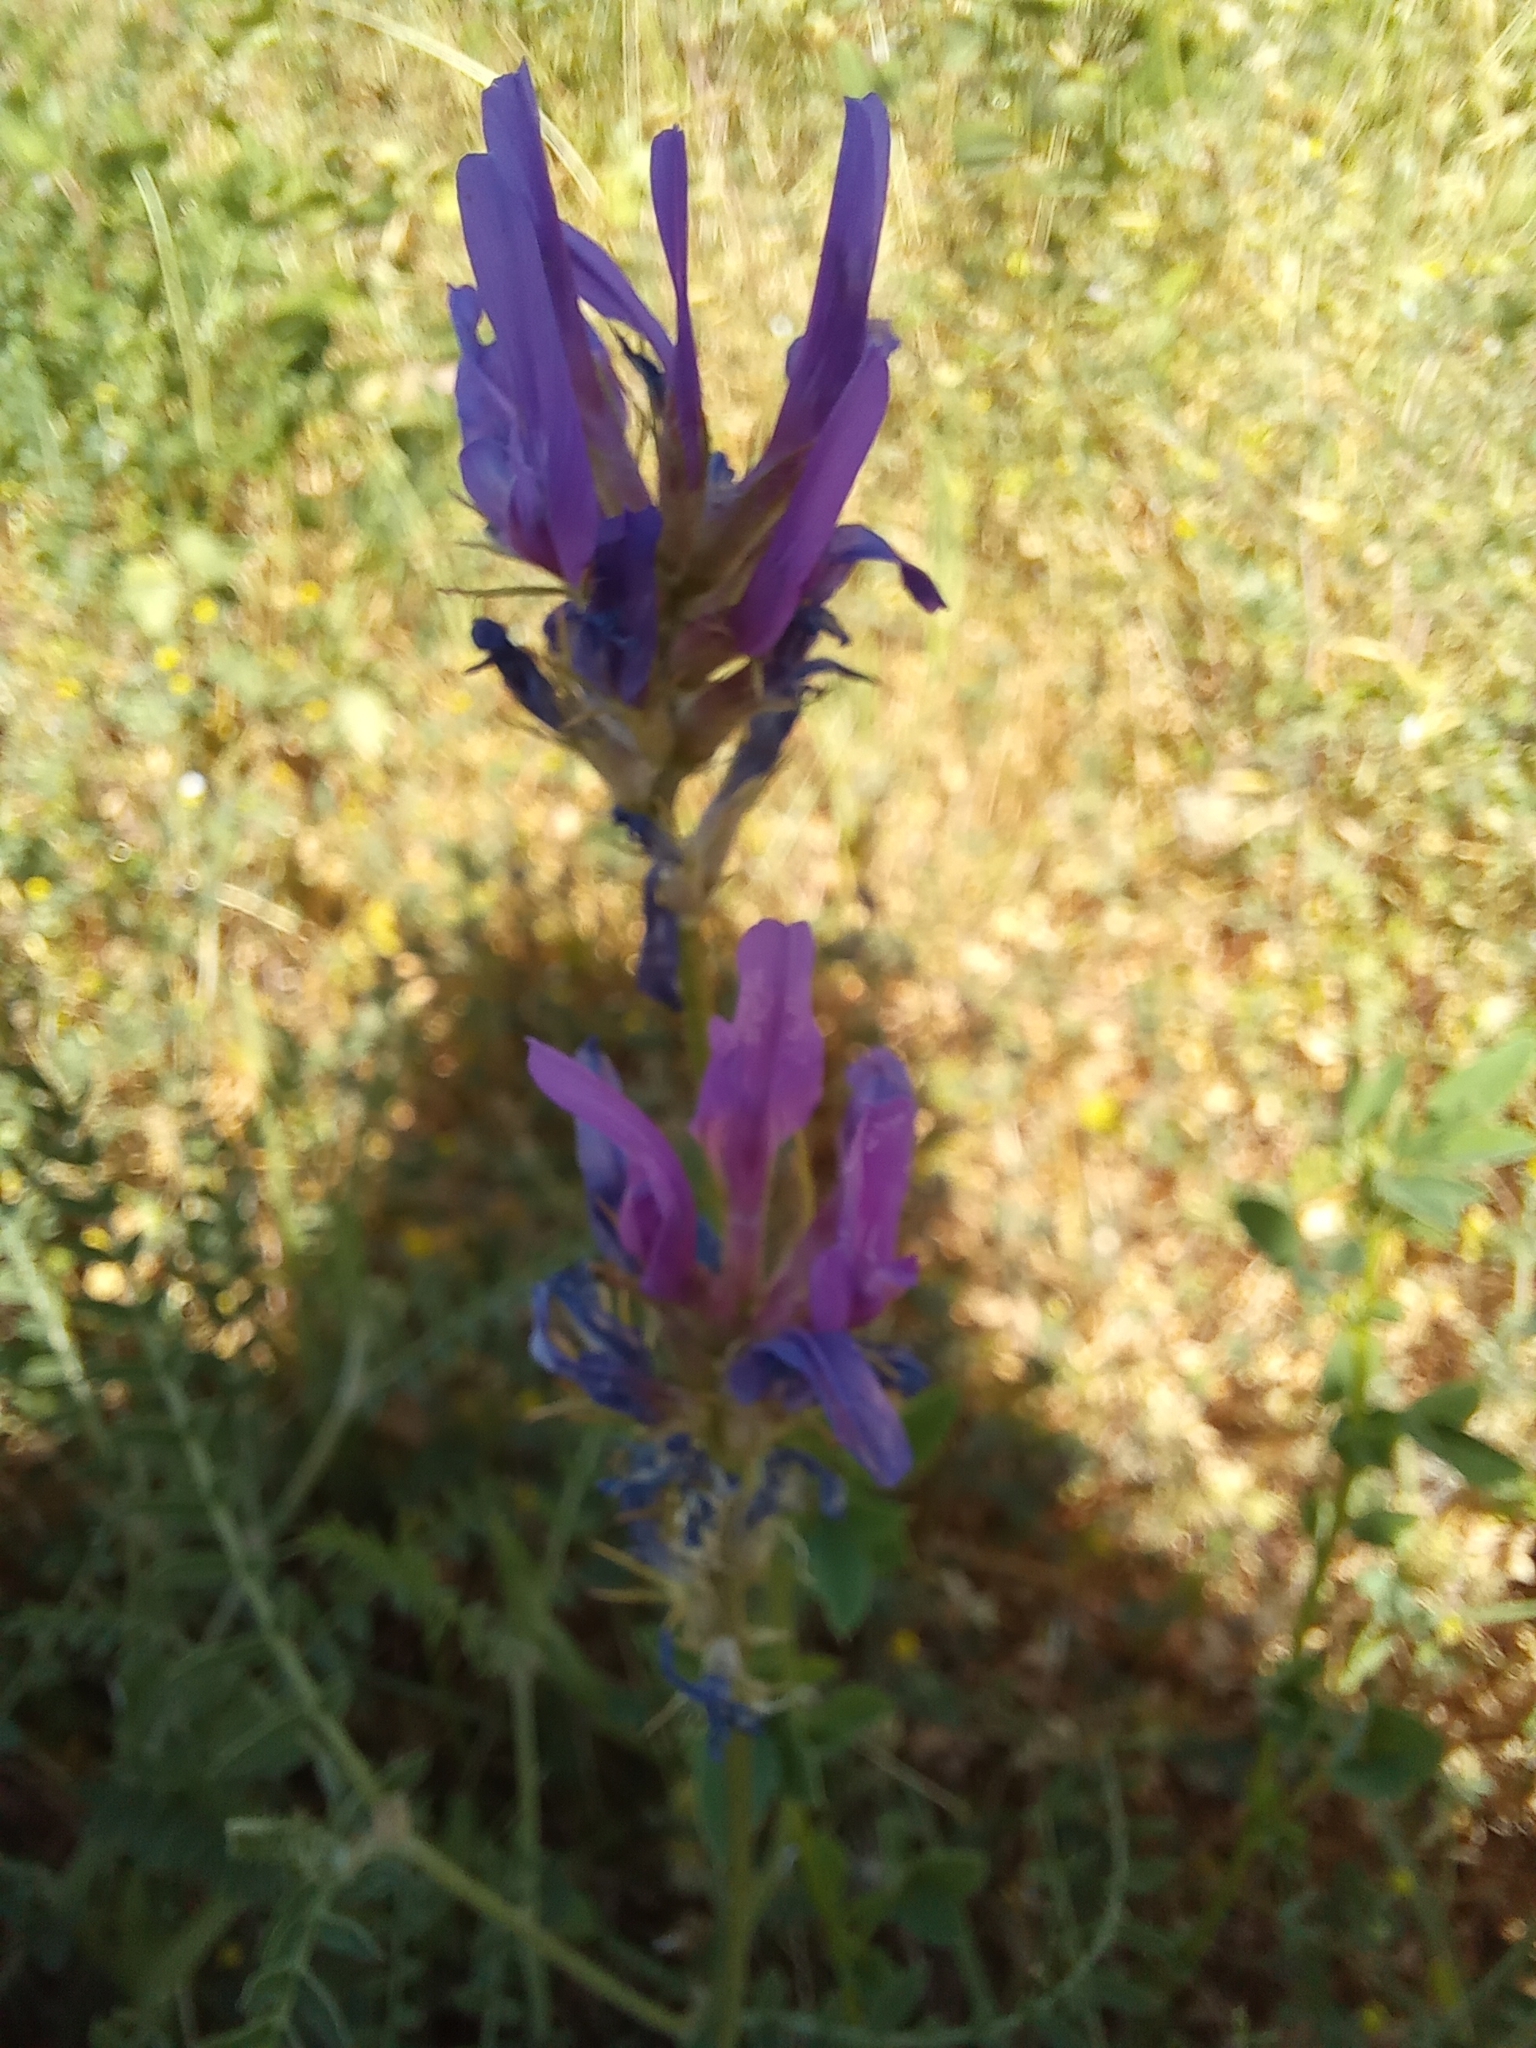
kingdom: Plantae
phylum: Tracheophyta
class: Magnoliopsida
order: Fabales
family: Fabaceae
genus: Astragalus
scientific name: Astragalus onobrychis
